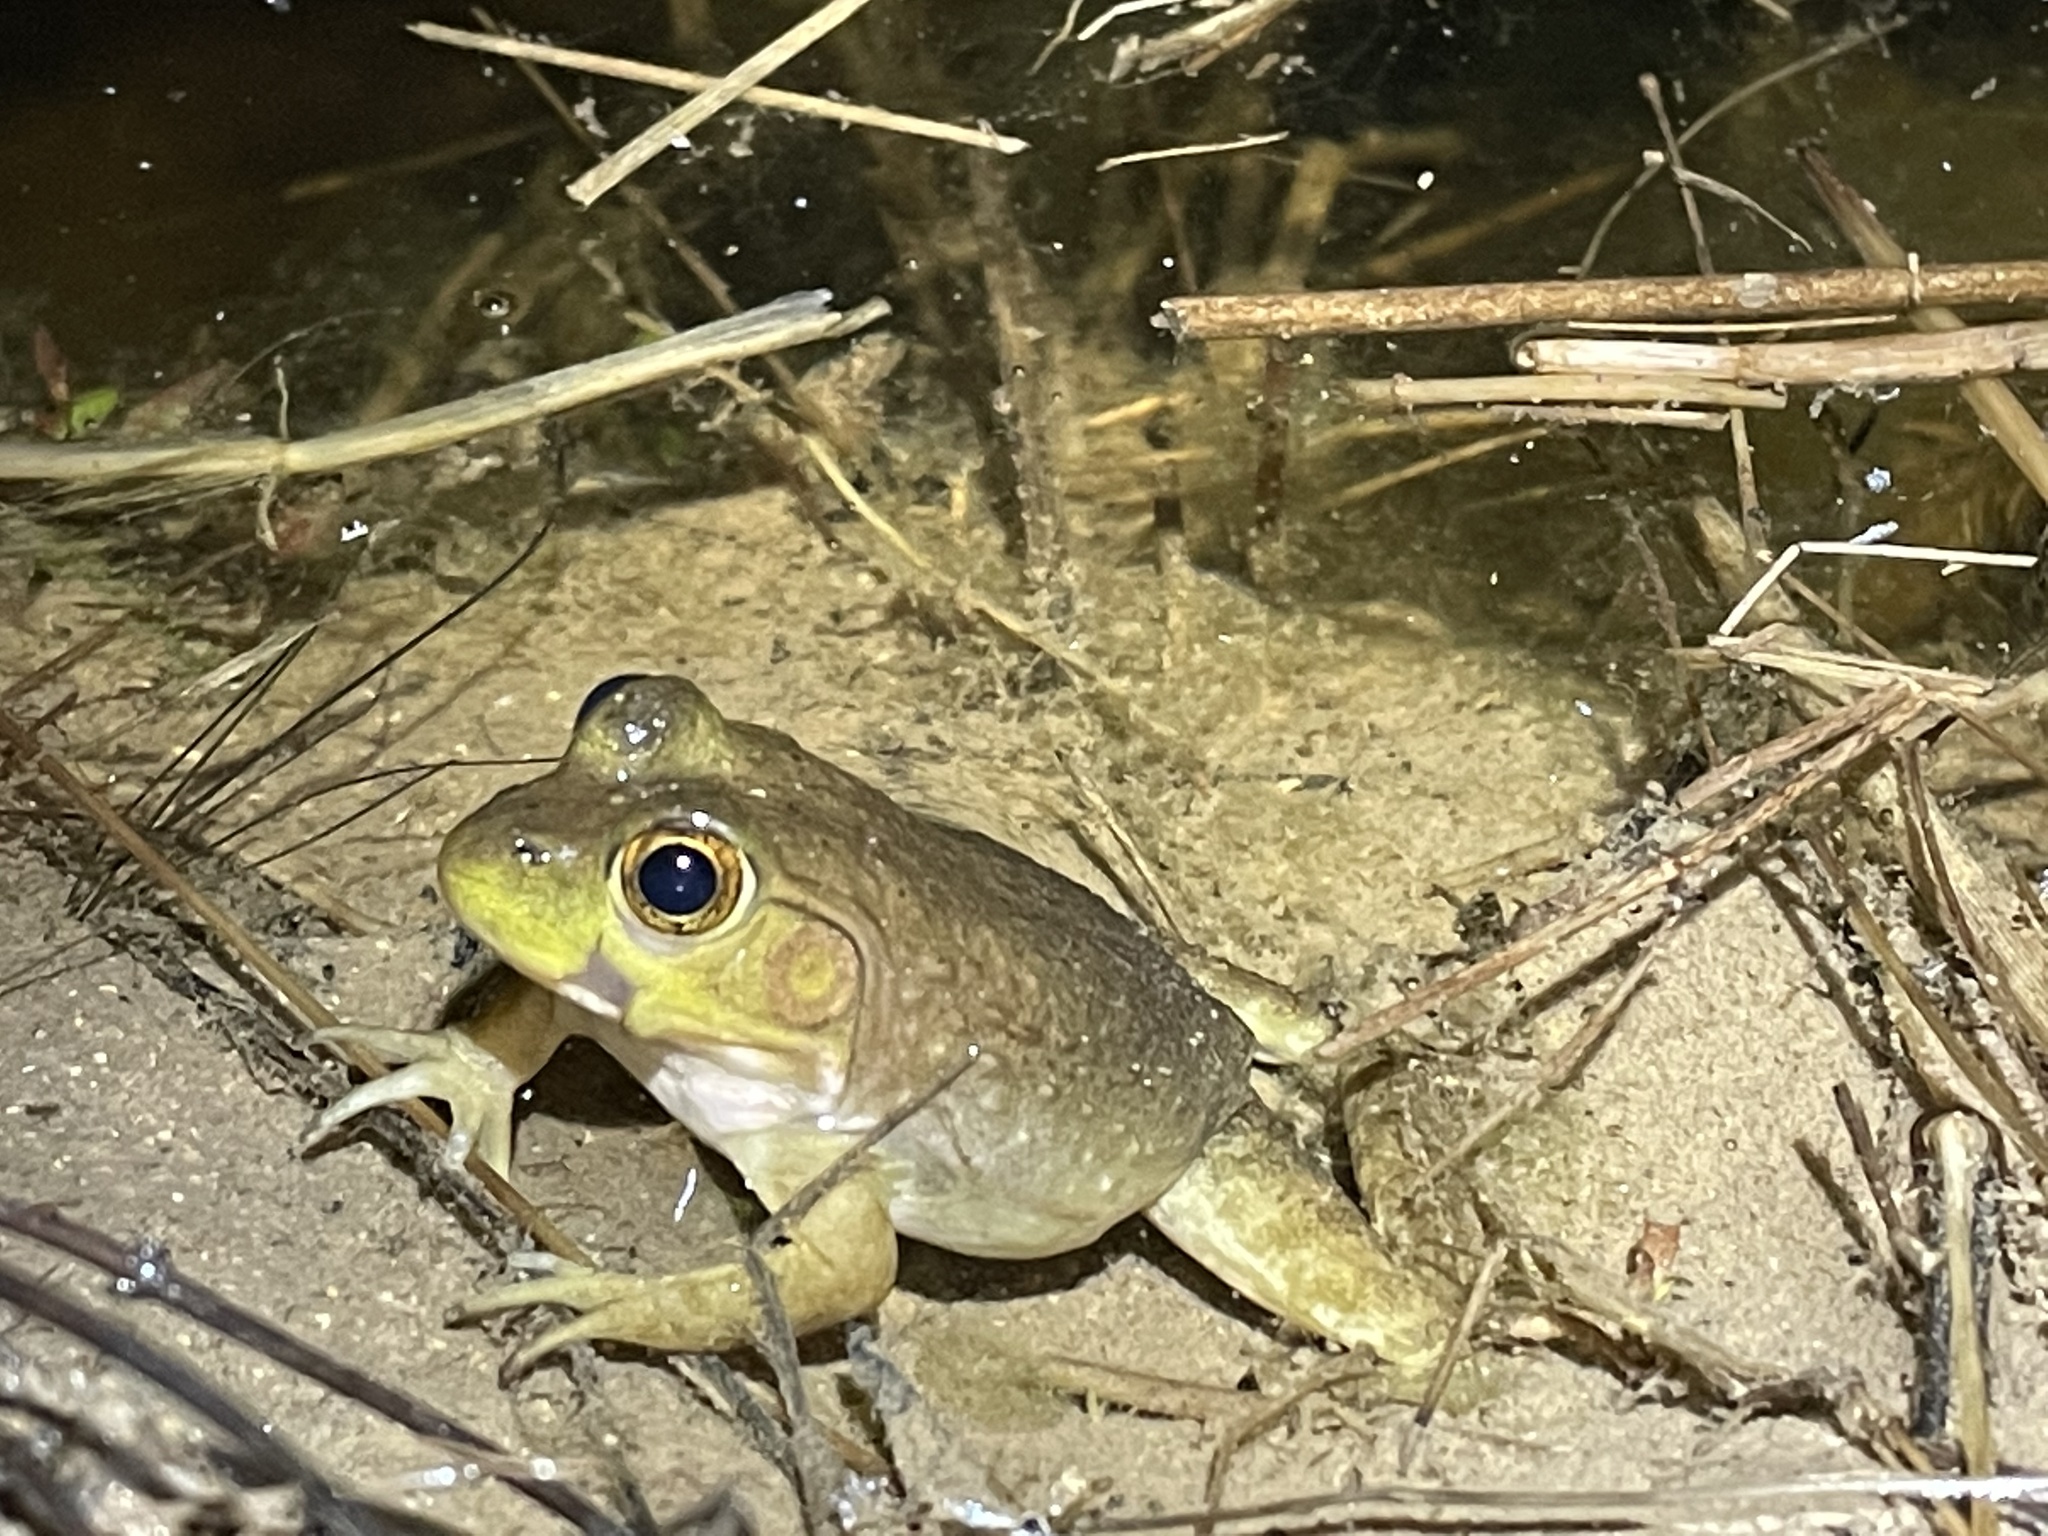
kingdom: Animalia
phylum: Chordata
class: Amphibia
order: Anura
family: Ranidae
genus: Lithobates
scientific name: Lithobates catesbeianus
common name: American bullfrog
